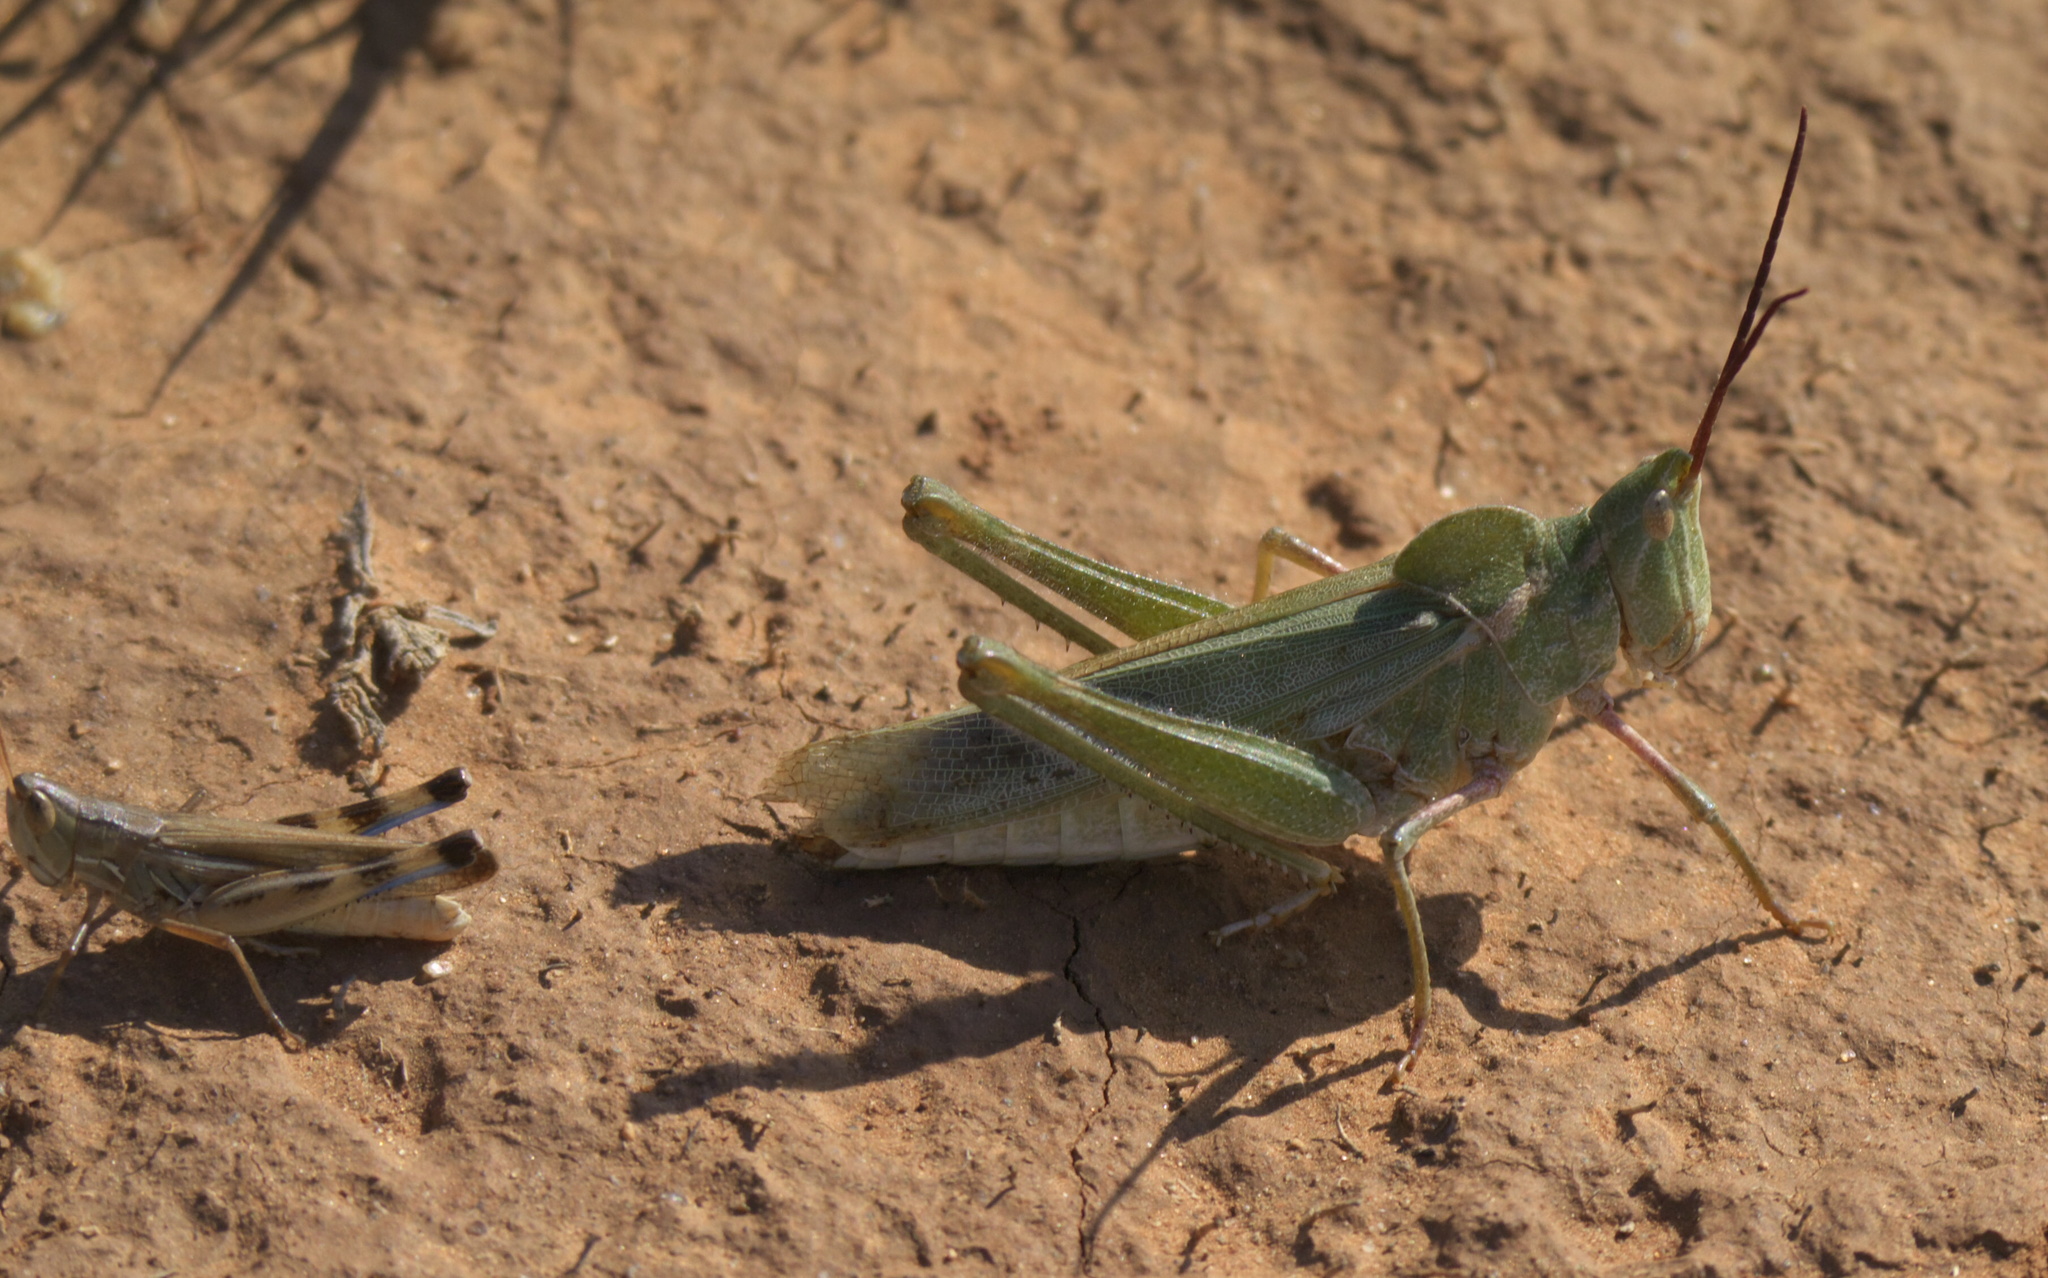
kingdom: Animalia
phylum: Arthropoda
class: Insecta
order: Orthoptera
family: Acrididae
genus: Acrolophitus
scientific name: Acrolophitus hirtipes
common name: Green fool grasshopper
